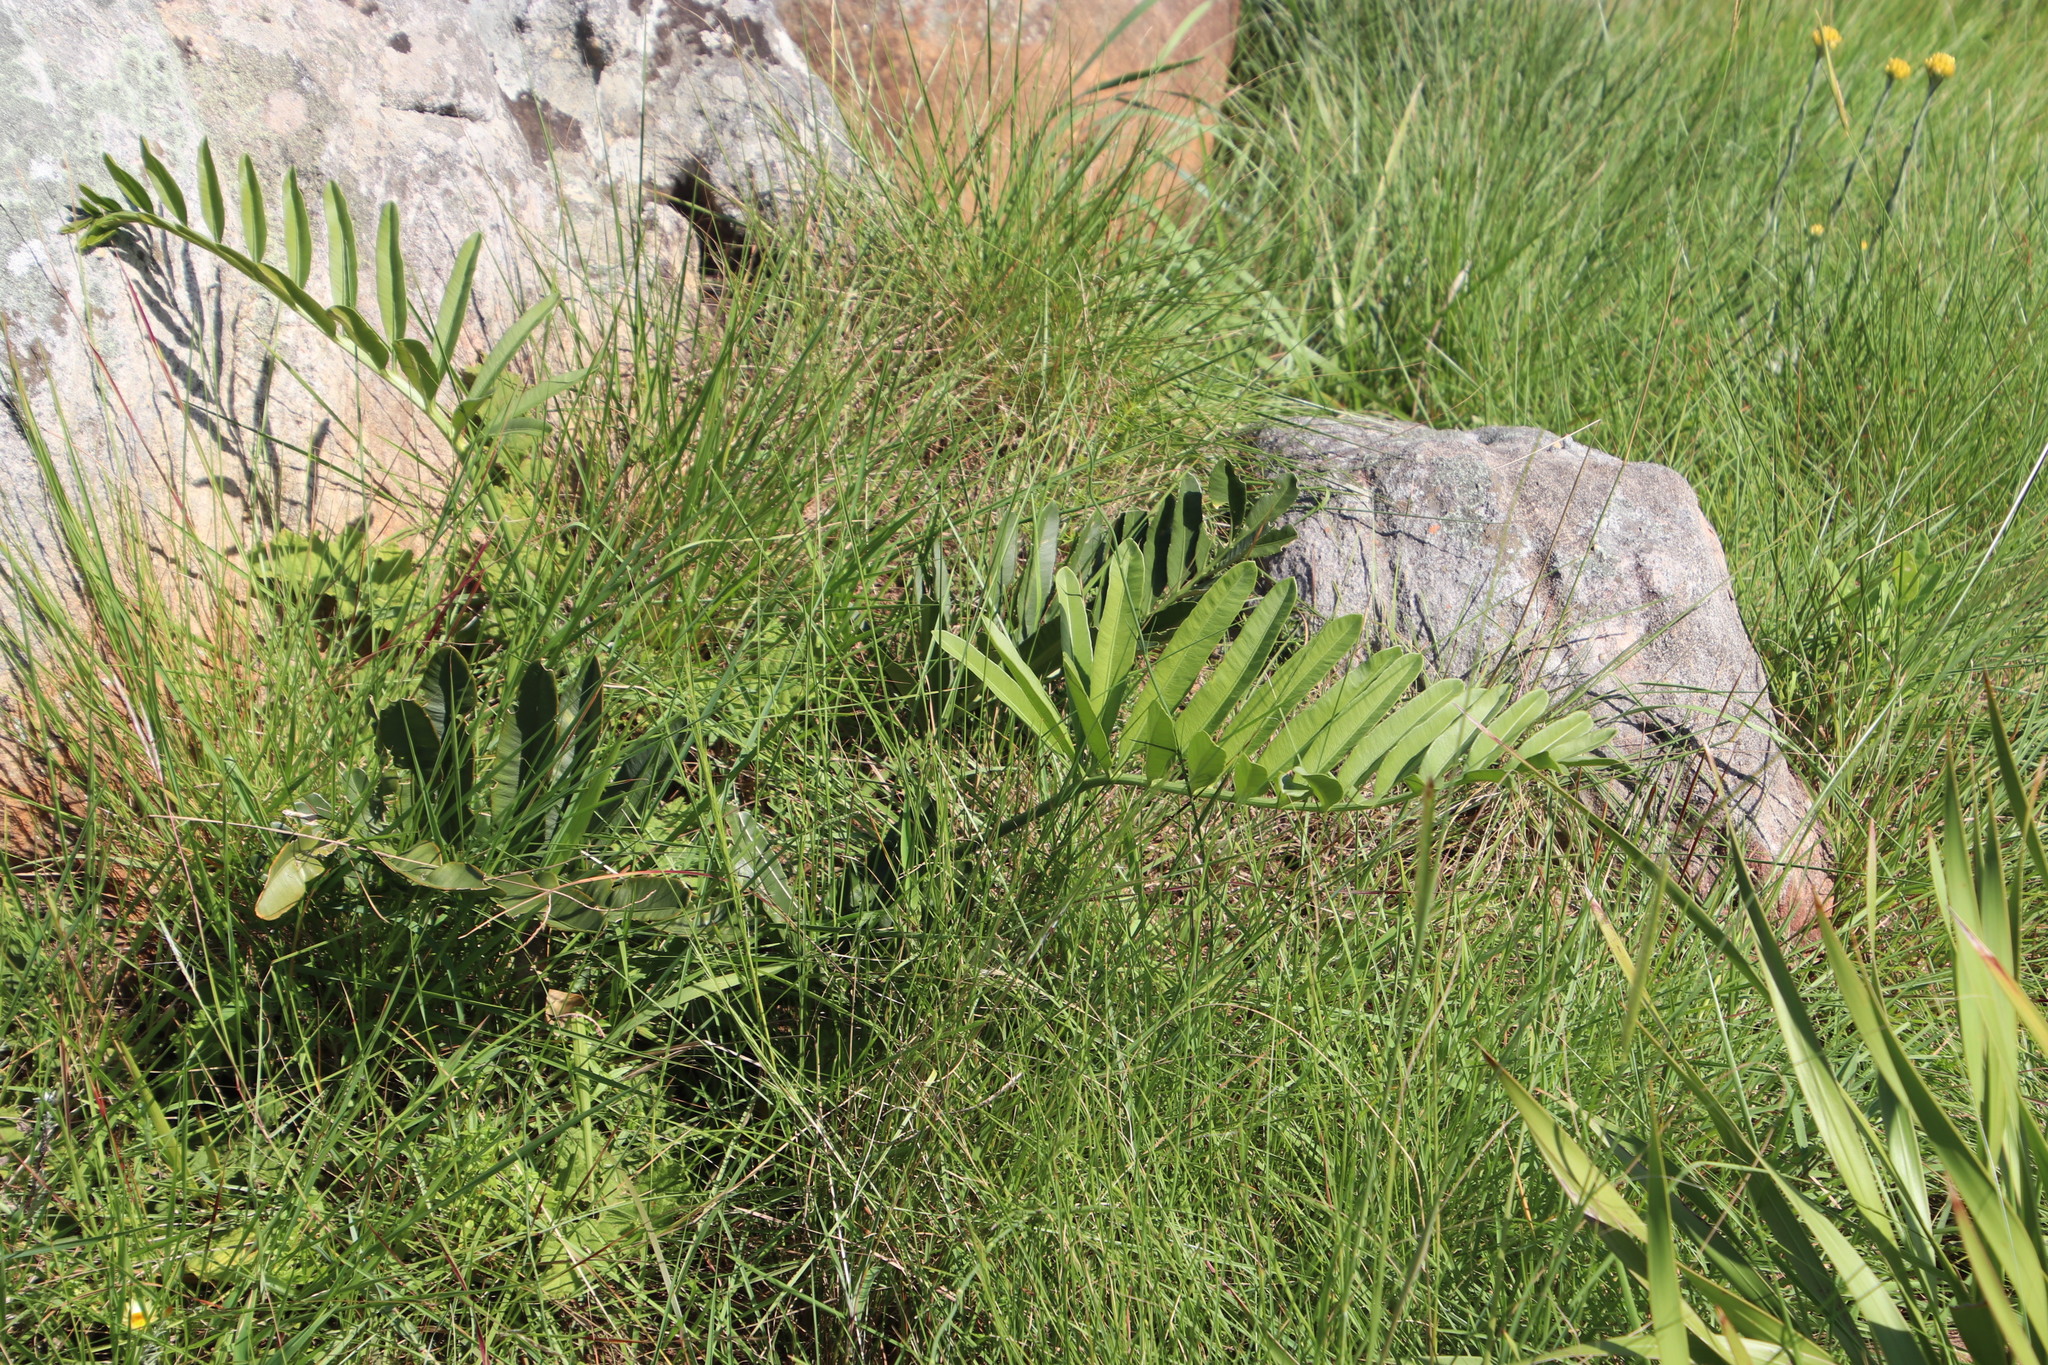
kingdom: Plantae
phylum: Tracheophyta
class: Cycadopsida
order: Cycadales
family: Zamiaceae
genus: Stangeria
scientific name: Stangeria eriopus
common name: Natal grass cycad
